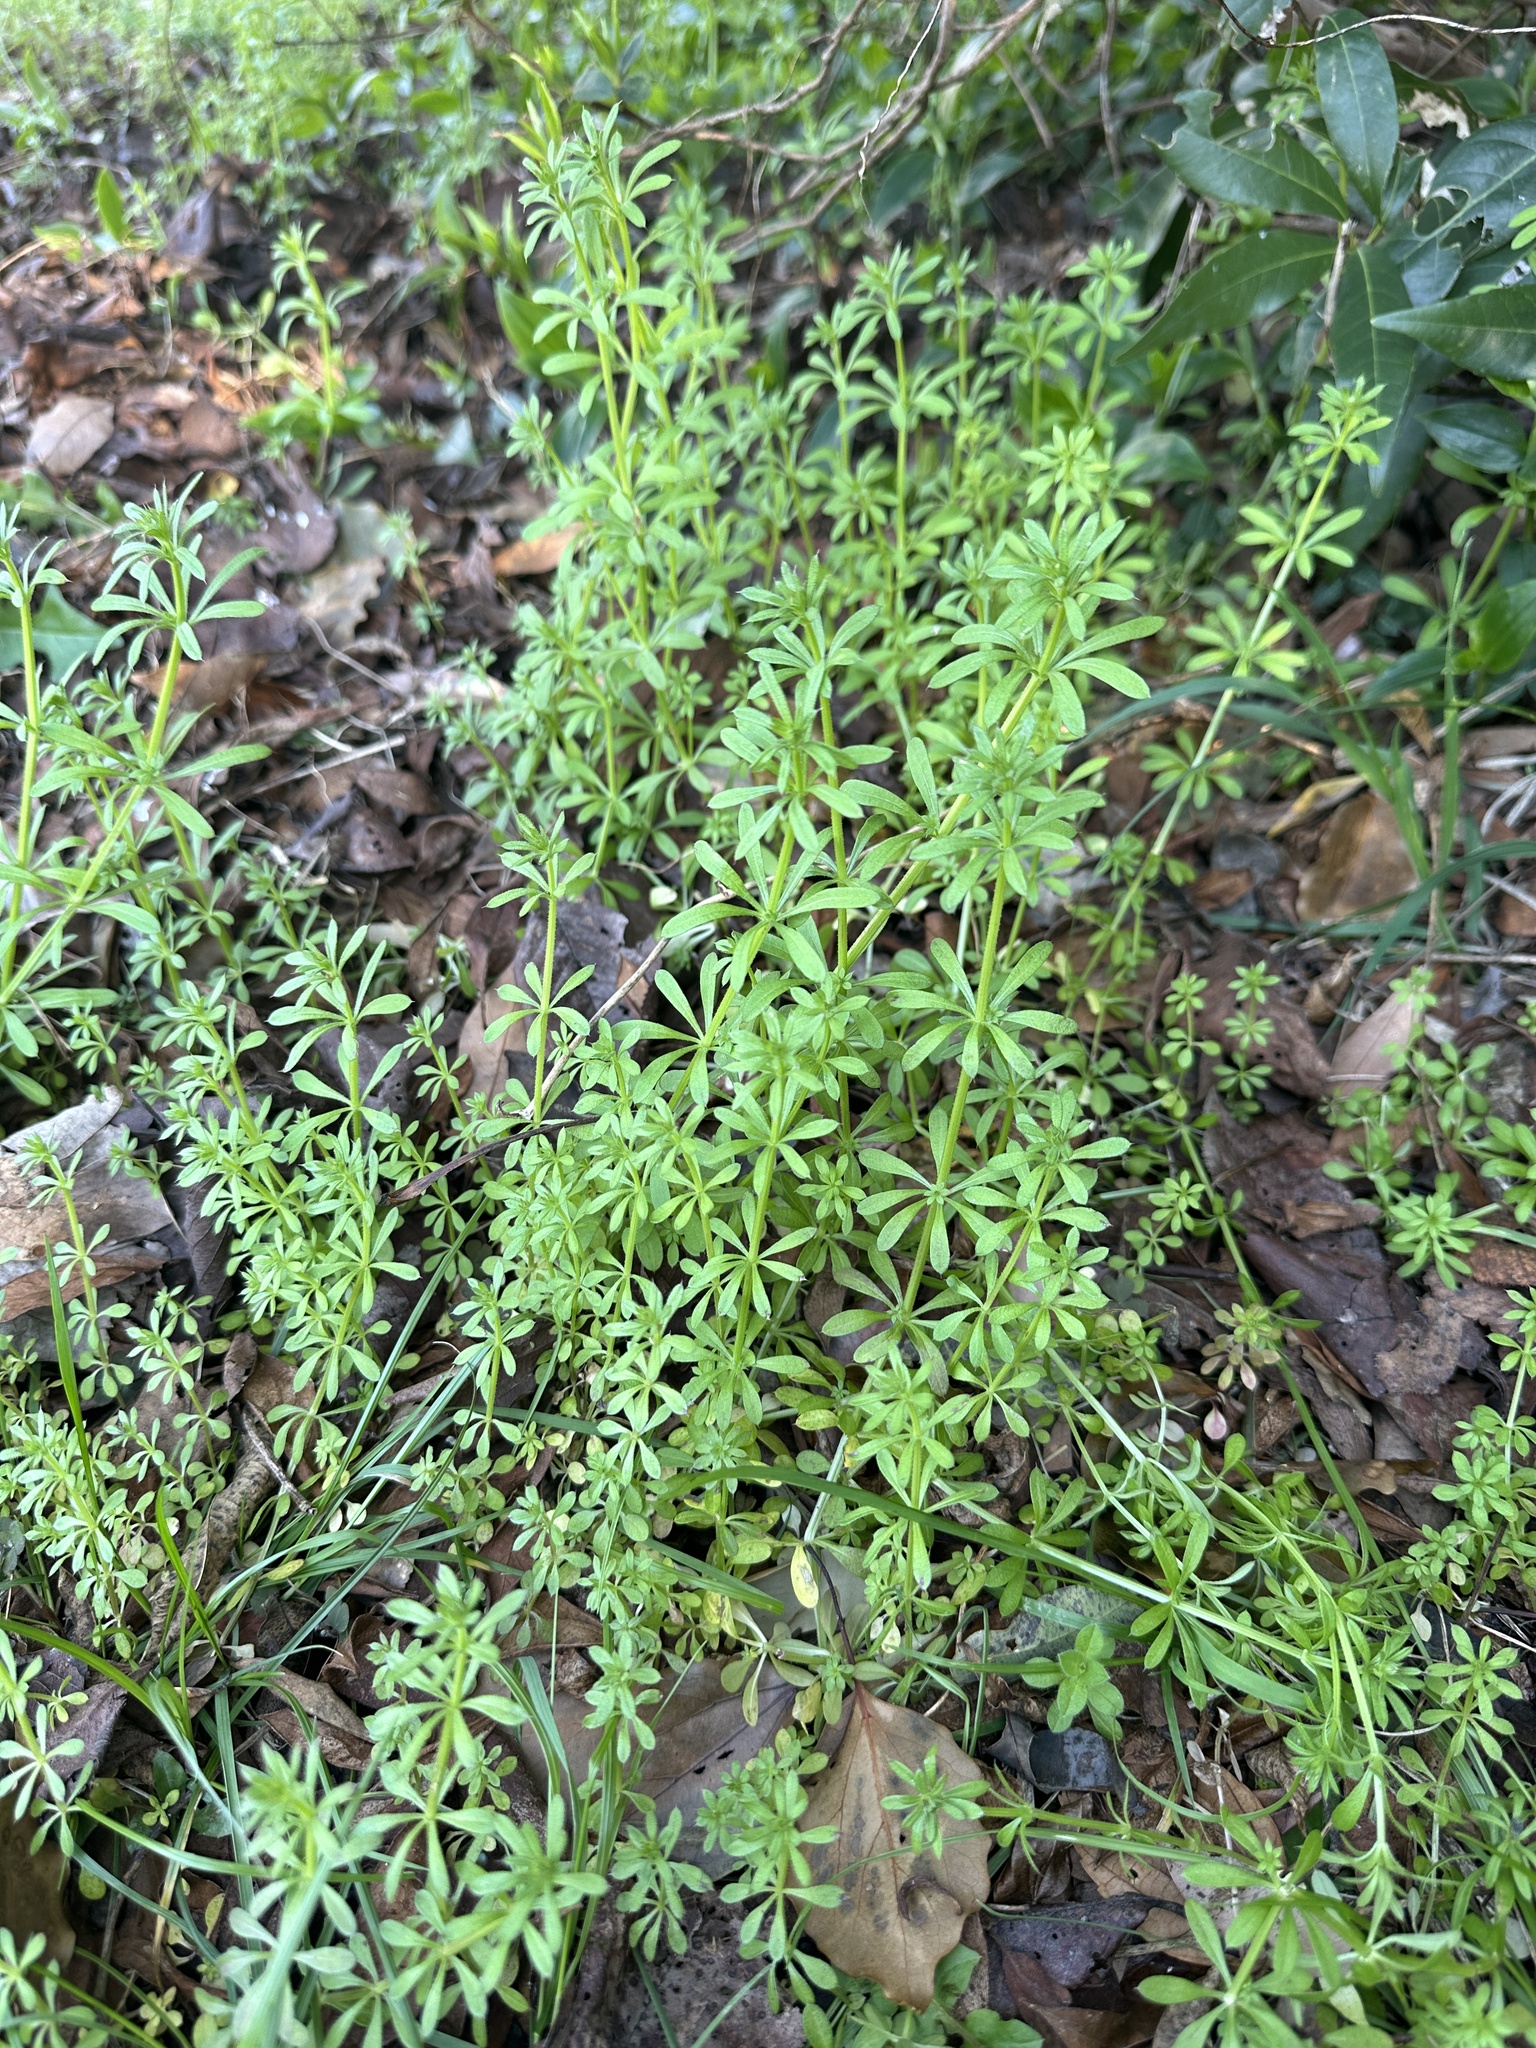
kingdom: Plantae
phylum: Tracheophyta
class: Magnoliopsida
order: Gentianales
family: Rubiaceae
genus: Galium
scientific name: Galium
